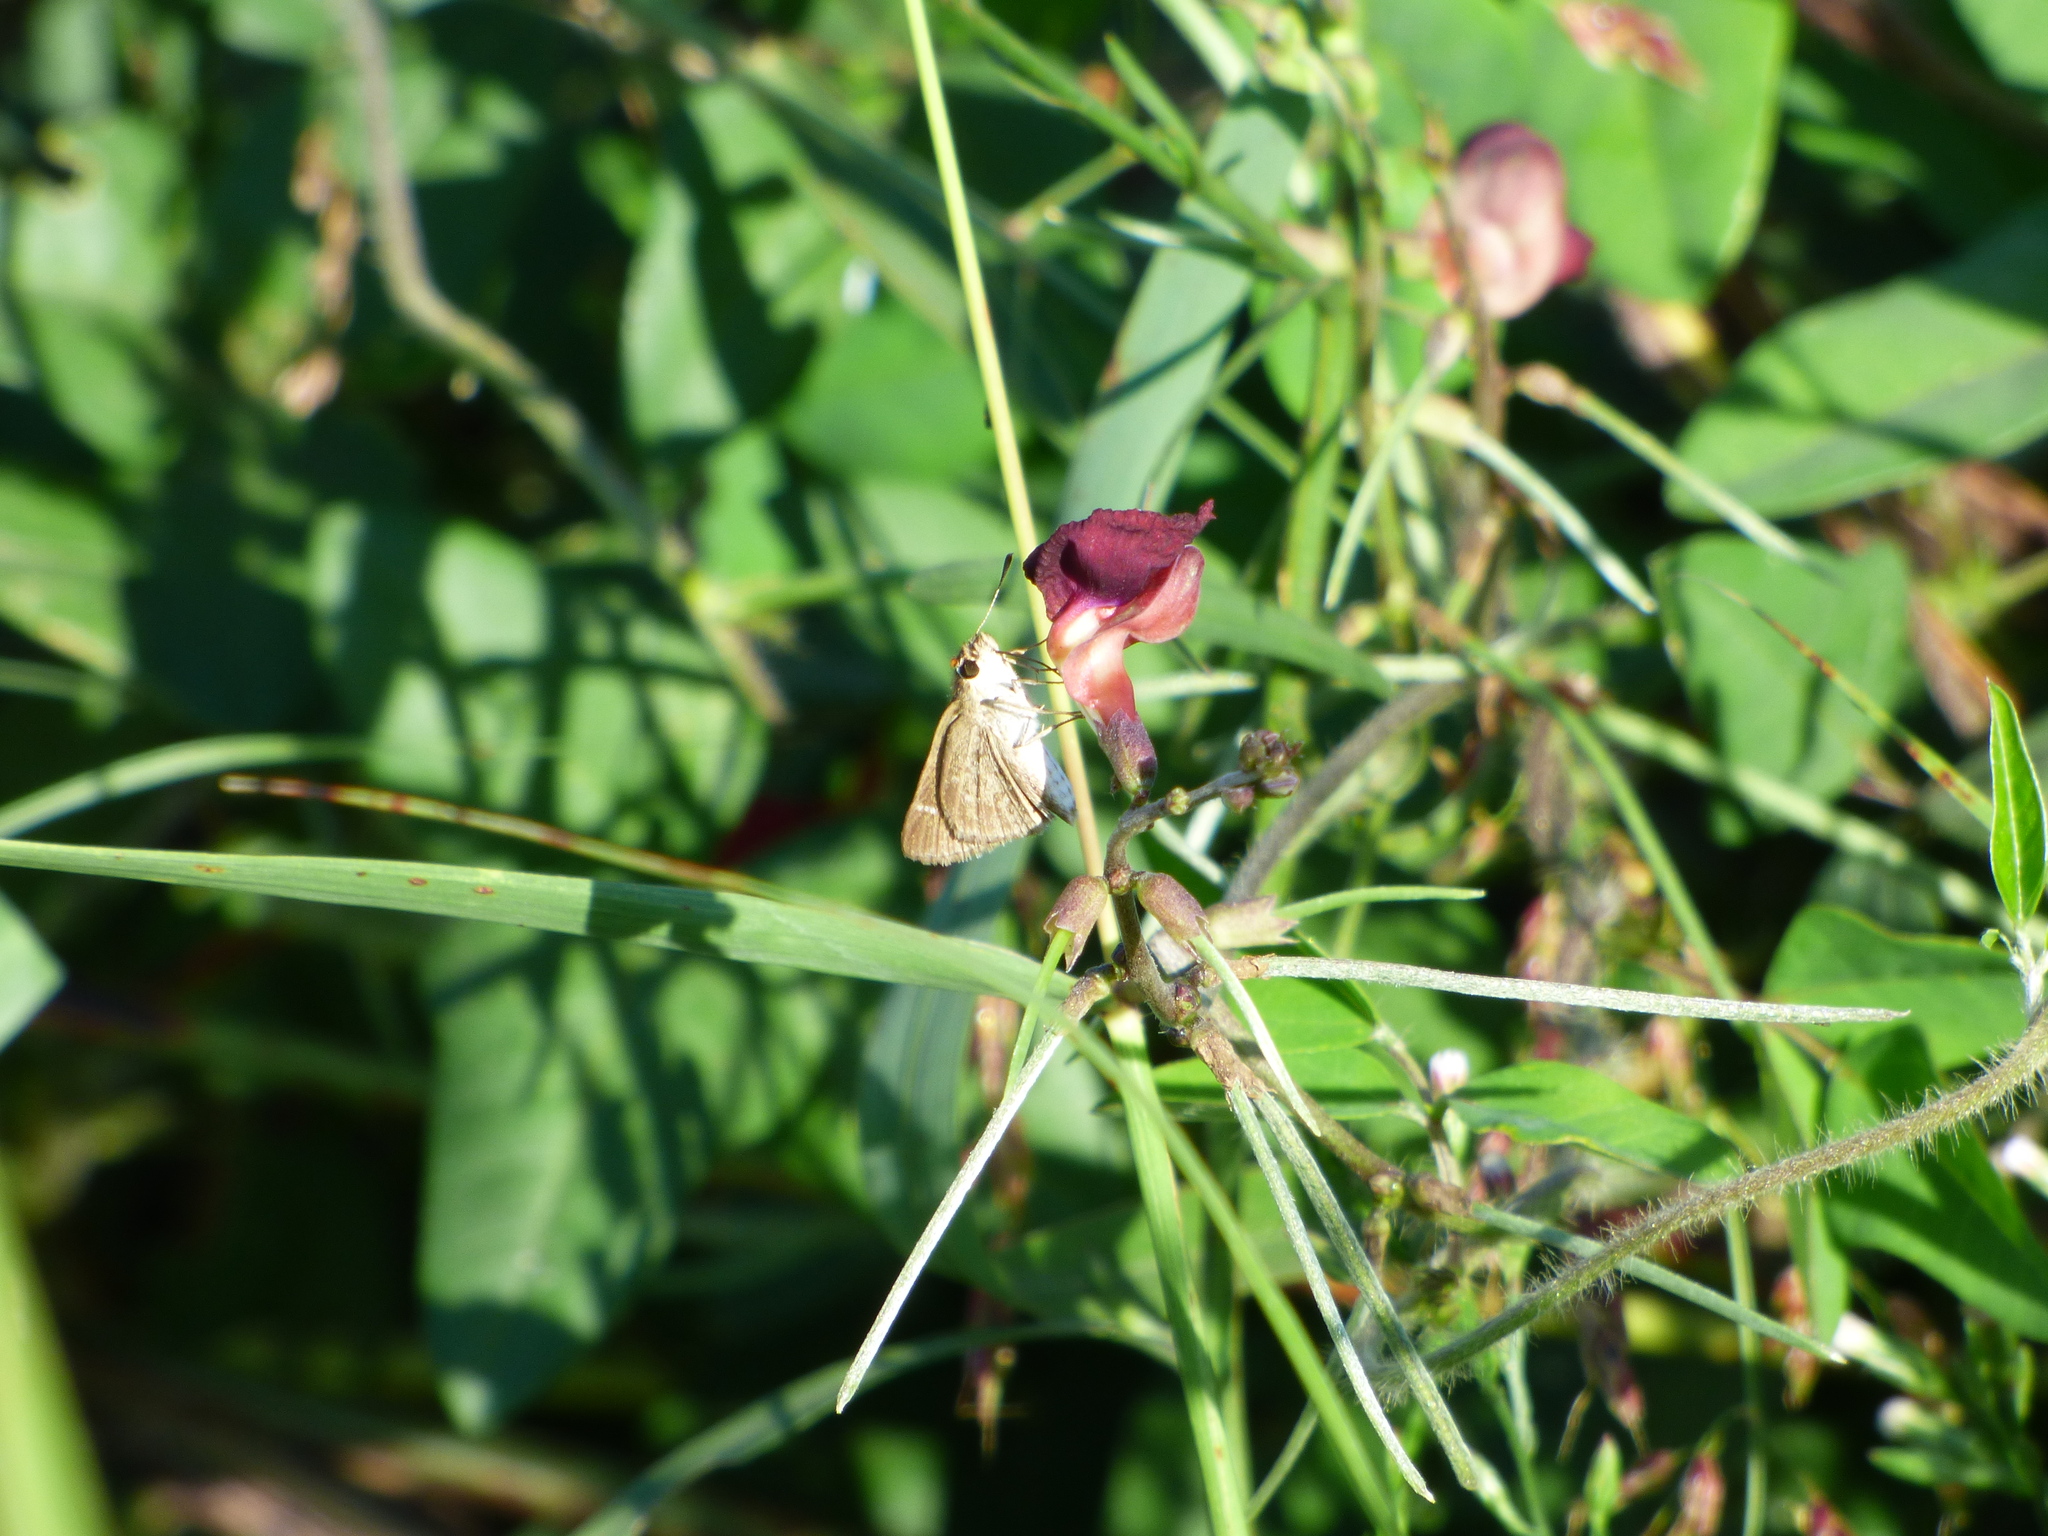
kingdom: Animalia
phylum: Arthropoda
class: Insecta
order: Lepidoptera
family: Hesperiidae
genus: Lerodea
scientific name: Lerodea eufala
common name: Eufala skipper
